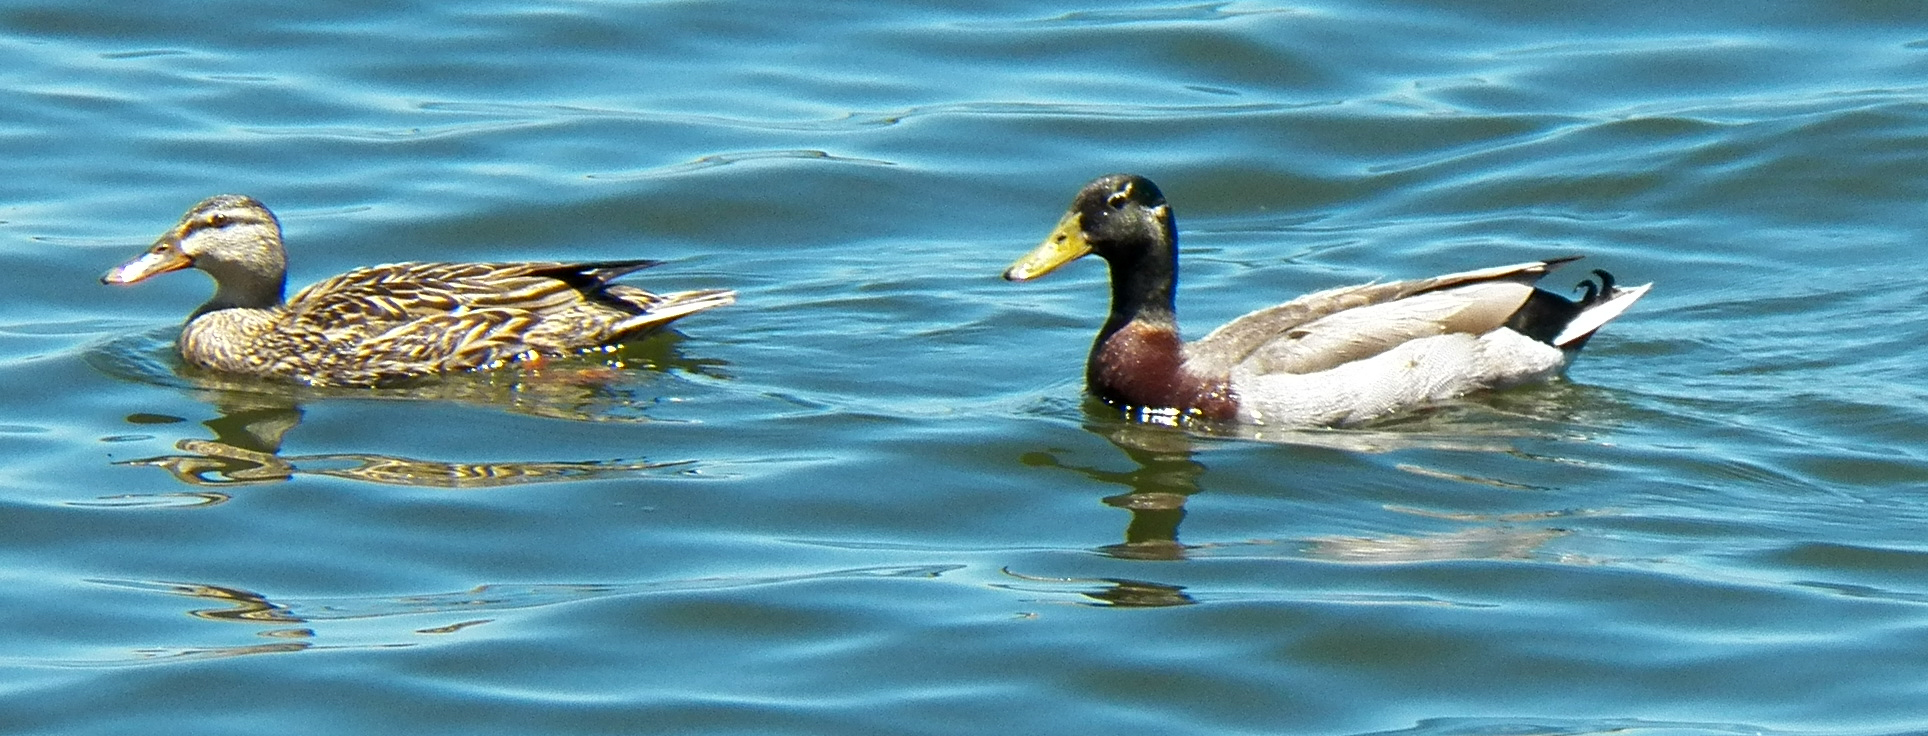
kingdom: Animalia
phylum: Chordata
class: Aves
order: Anseriformes
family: Anatidae
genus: Anas
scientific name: Anas platyrhynchos
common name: Mallard
